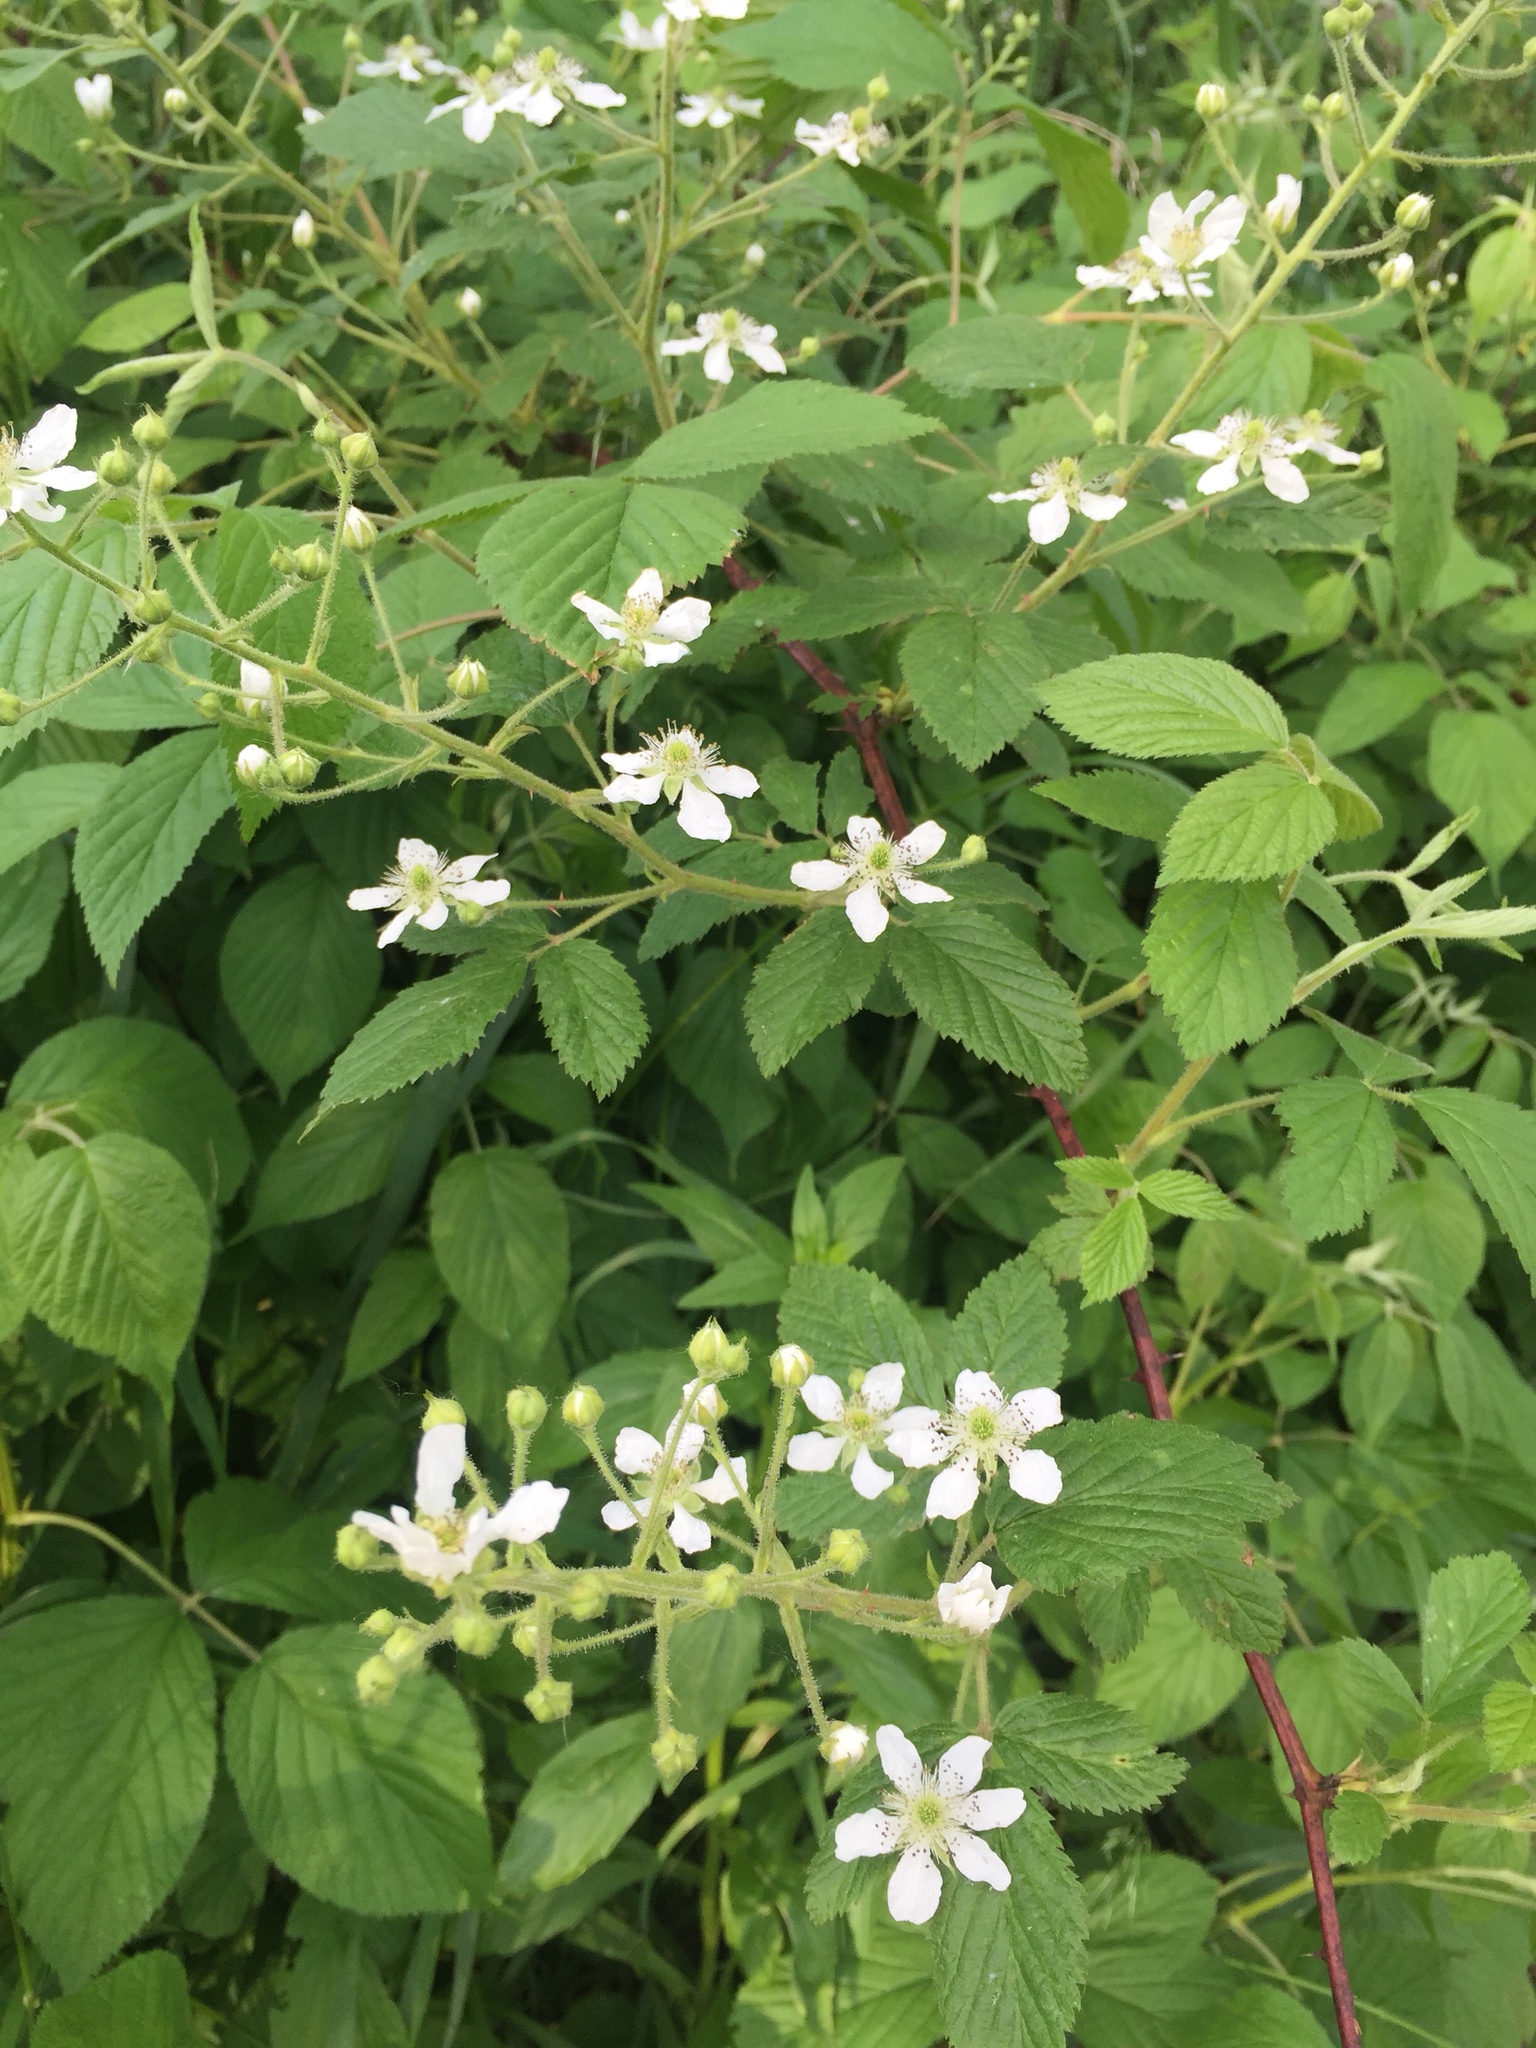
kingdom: Plantae
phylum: Tracheophyta
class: Magnoliopsida
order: Rosales
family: Rosaceae
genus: Rubus
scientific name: Rubus allegheniensis
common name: Allegheny blackberry
